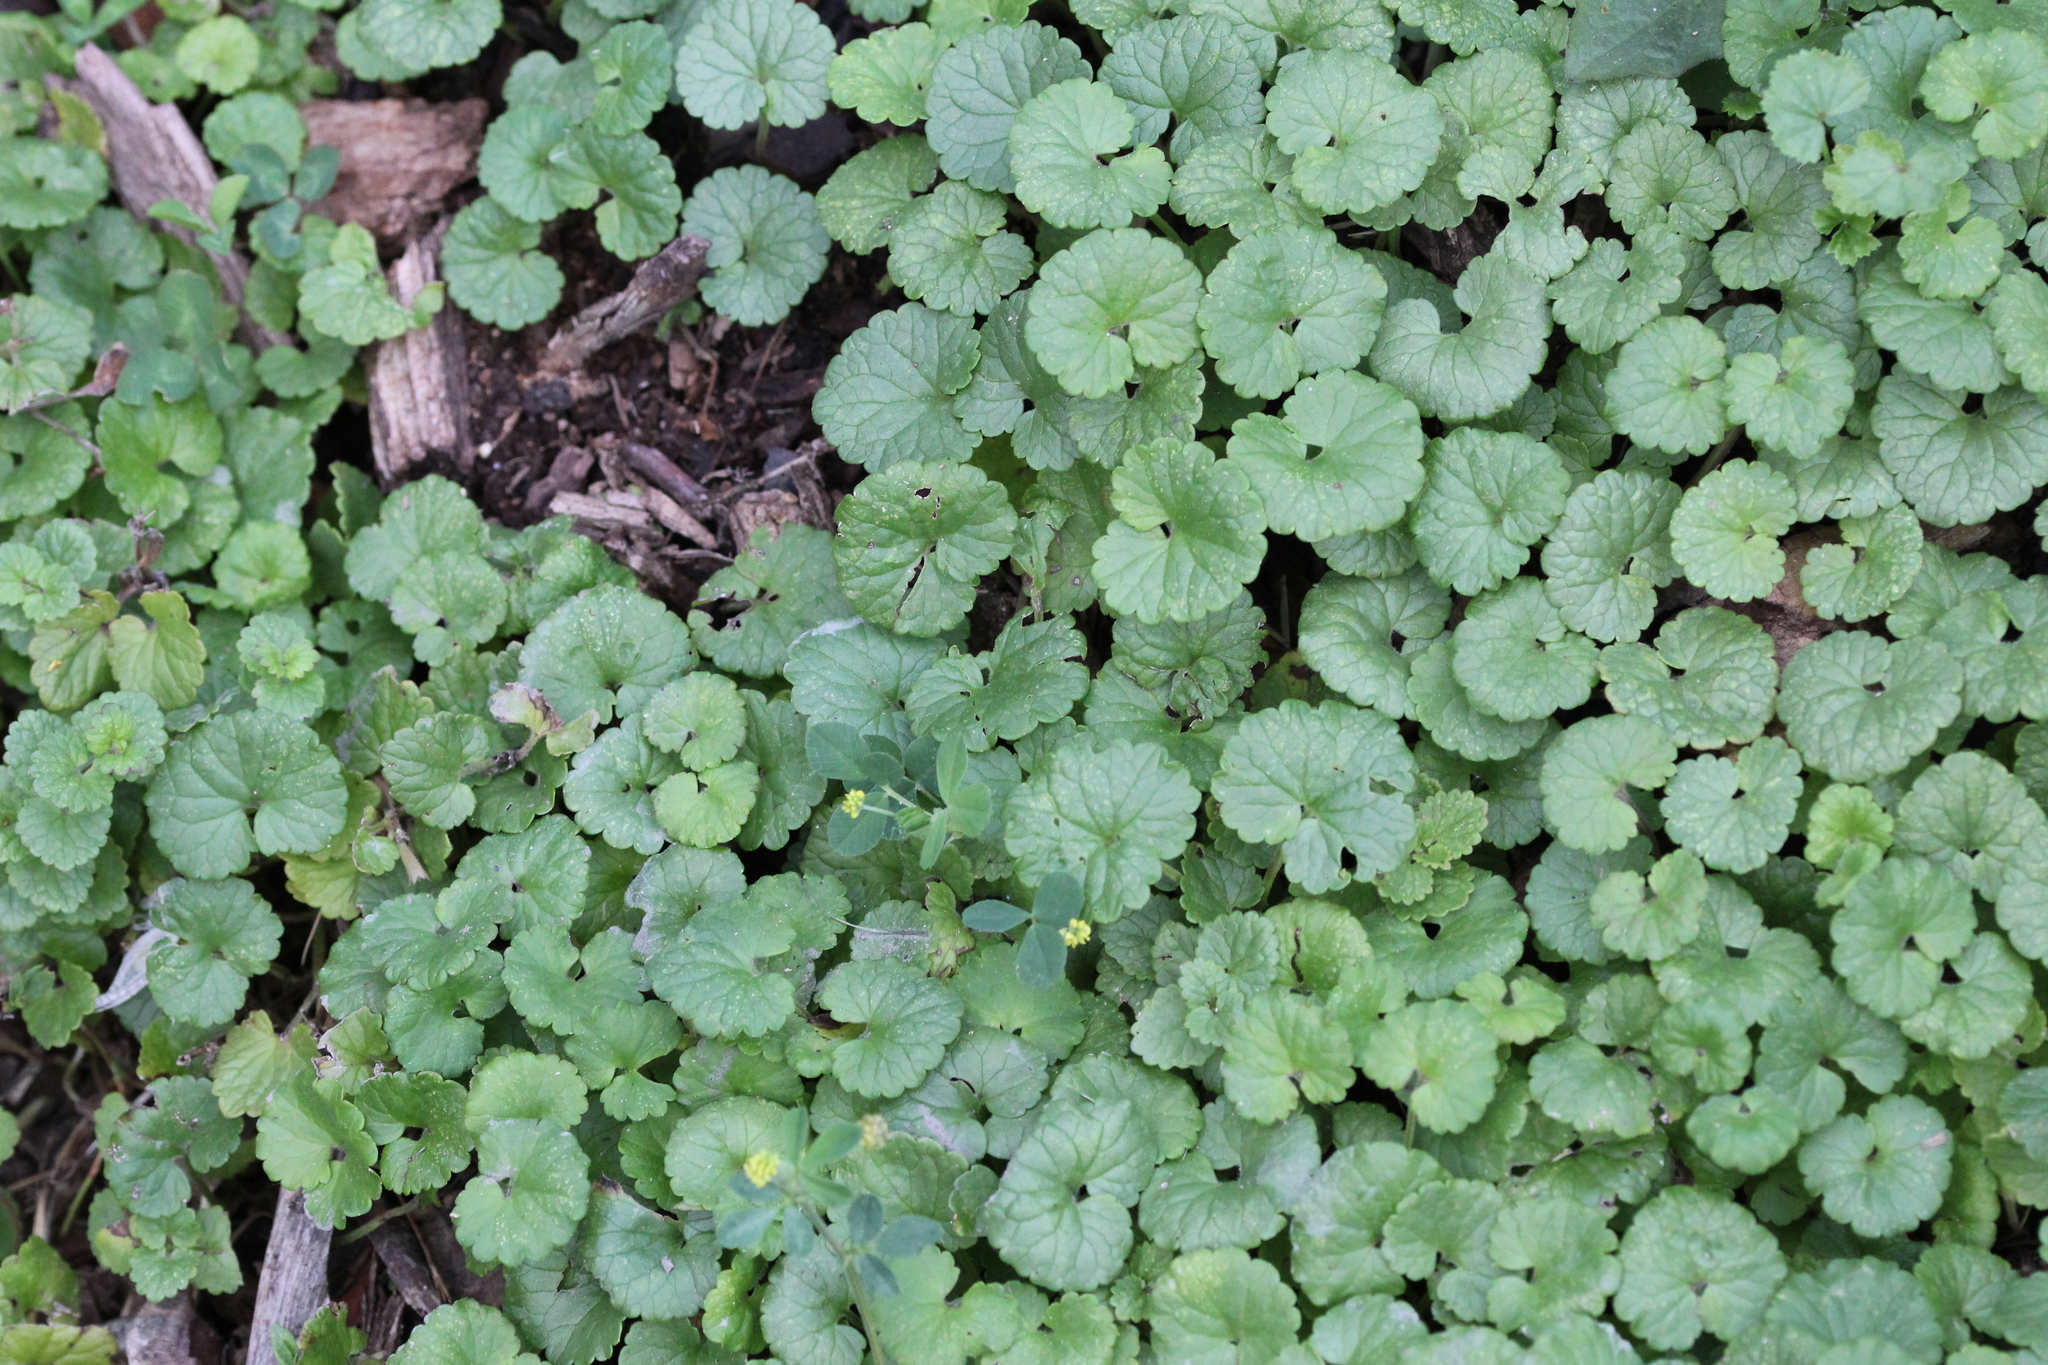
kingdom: Plantae
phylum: Tracheophyta
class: Magnoliopsida
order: Lamiales
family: Lamiaceae
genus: Glechoma
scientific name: Glechoma hederacea
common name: Ground ivy
